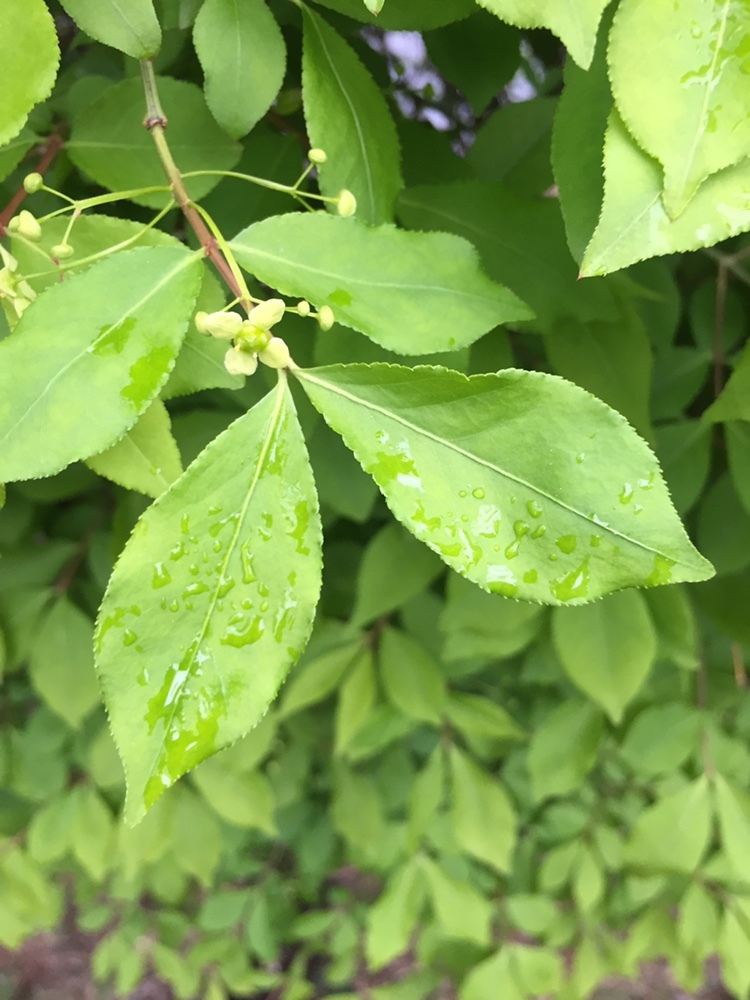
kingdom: Plantae
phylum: Tracheophyta
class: Magnoliopsida
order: Celastrales
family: Celastraceae
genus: Euonymus
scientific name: Euonymus alatus
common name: Winged euonymus
